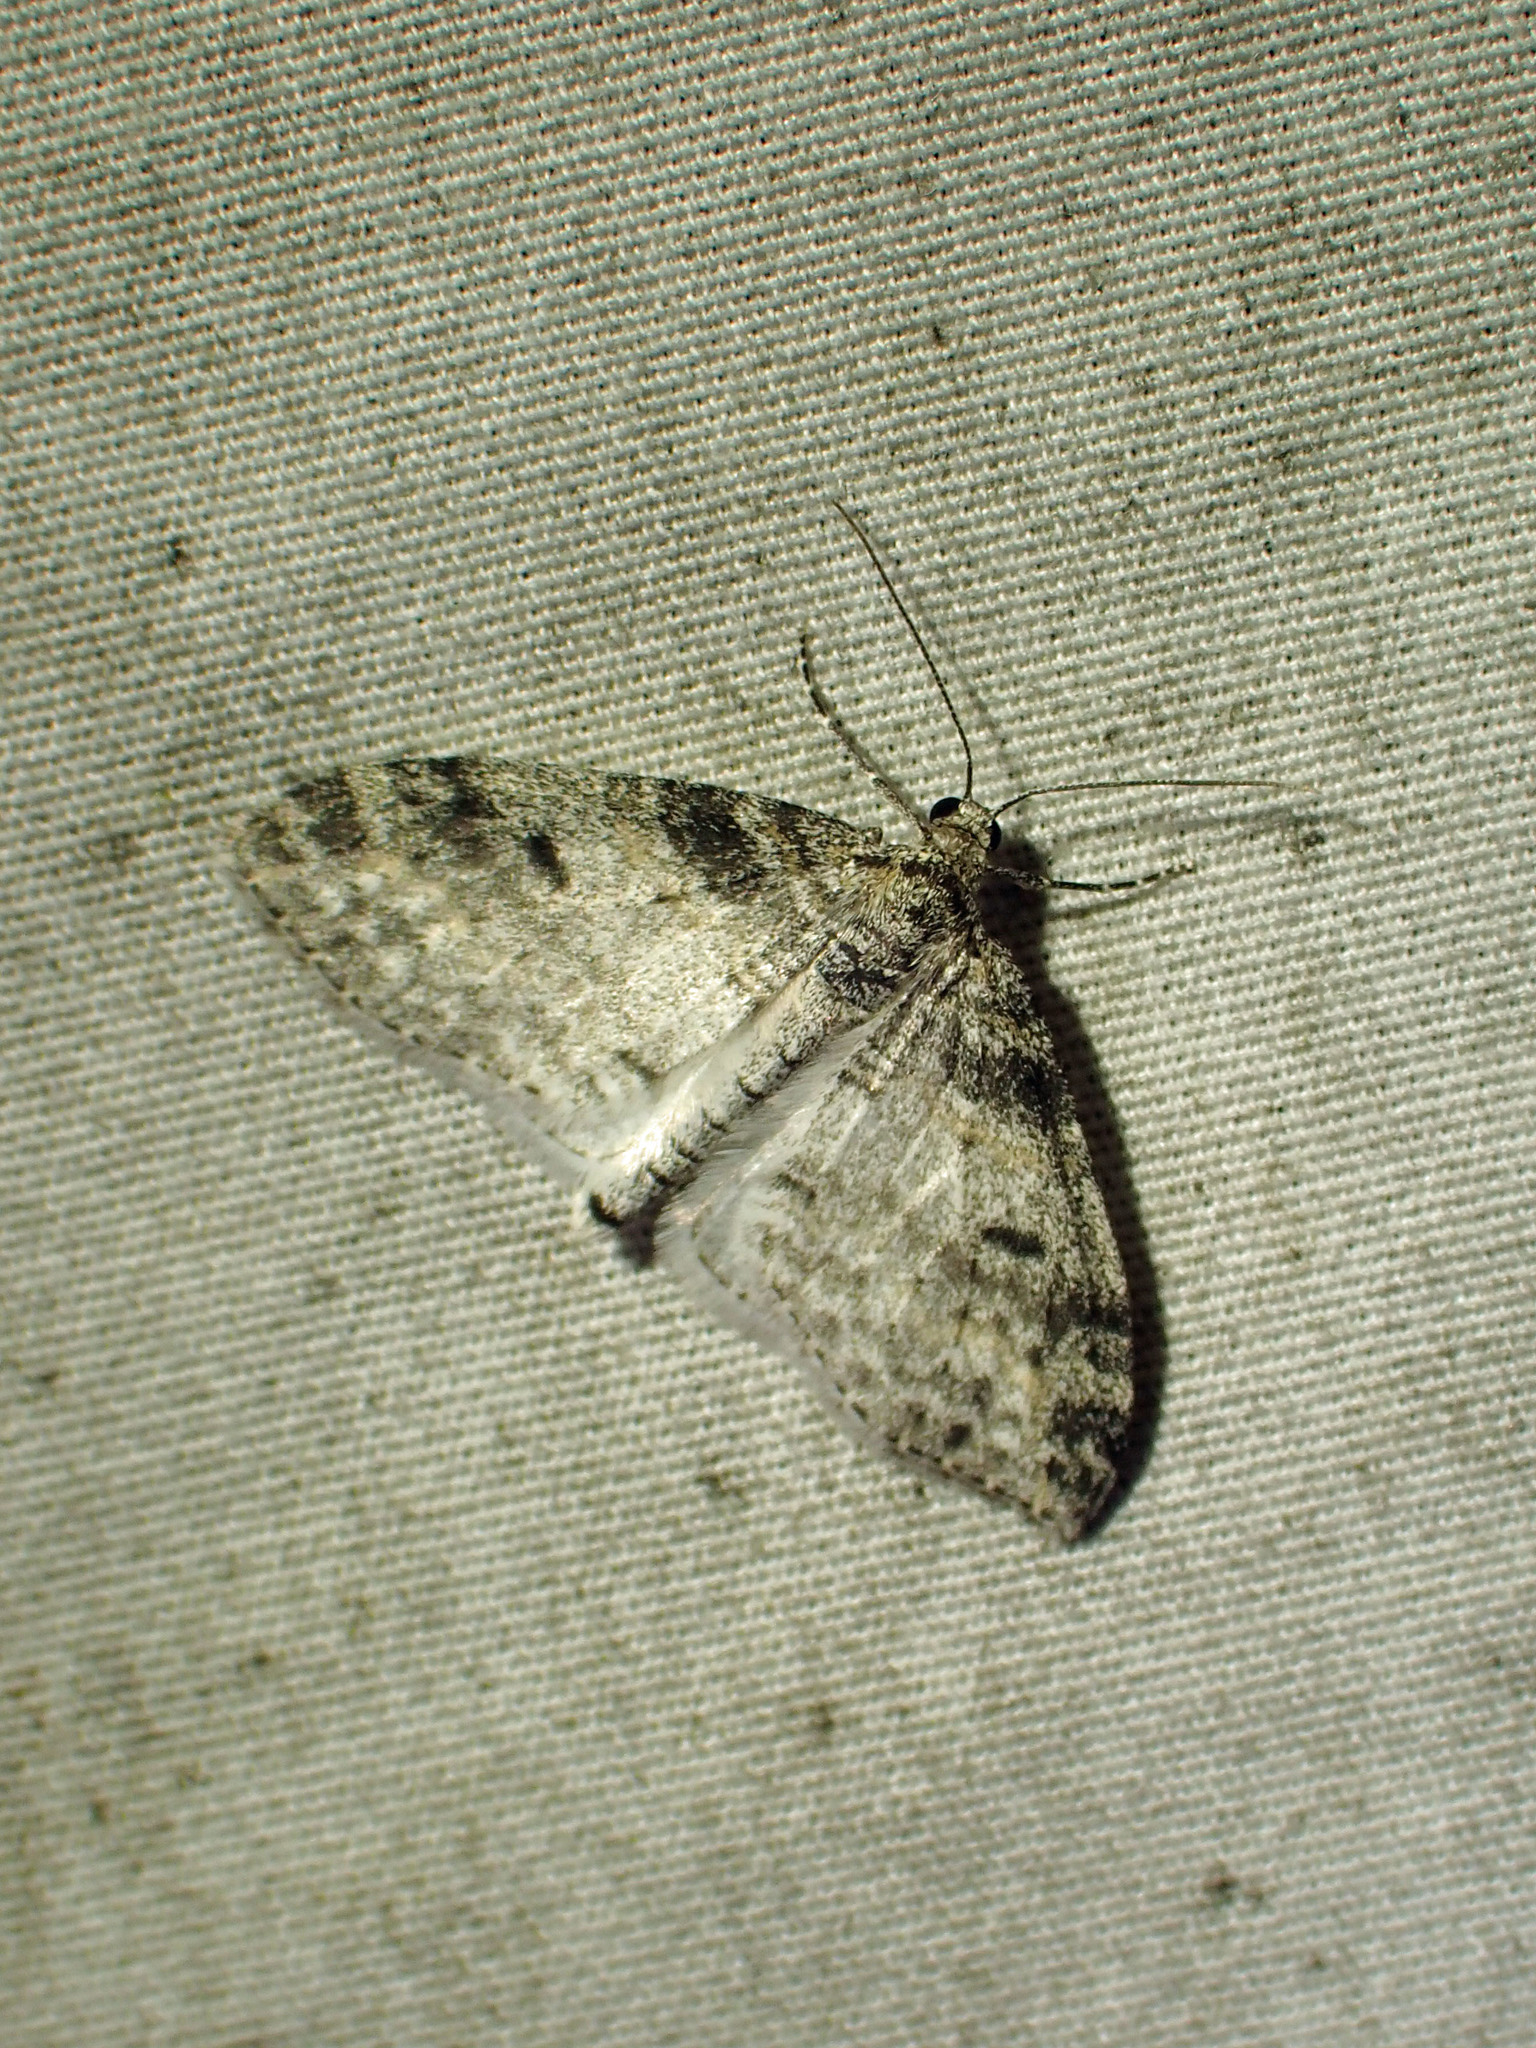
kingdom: Animalia
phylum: Arthropoda
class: Insecta
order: Lepidoptera
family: Geometridae
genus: Lobophora
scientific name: Lobophora nivigerata
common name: Powdered bigwing
